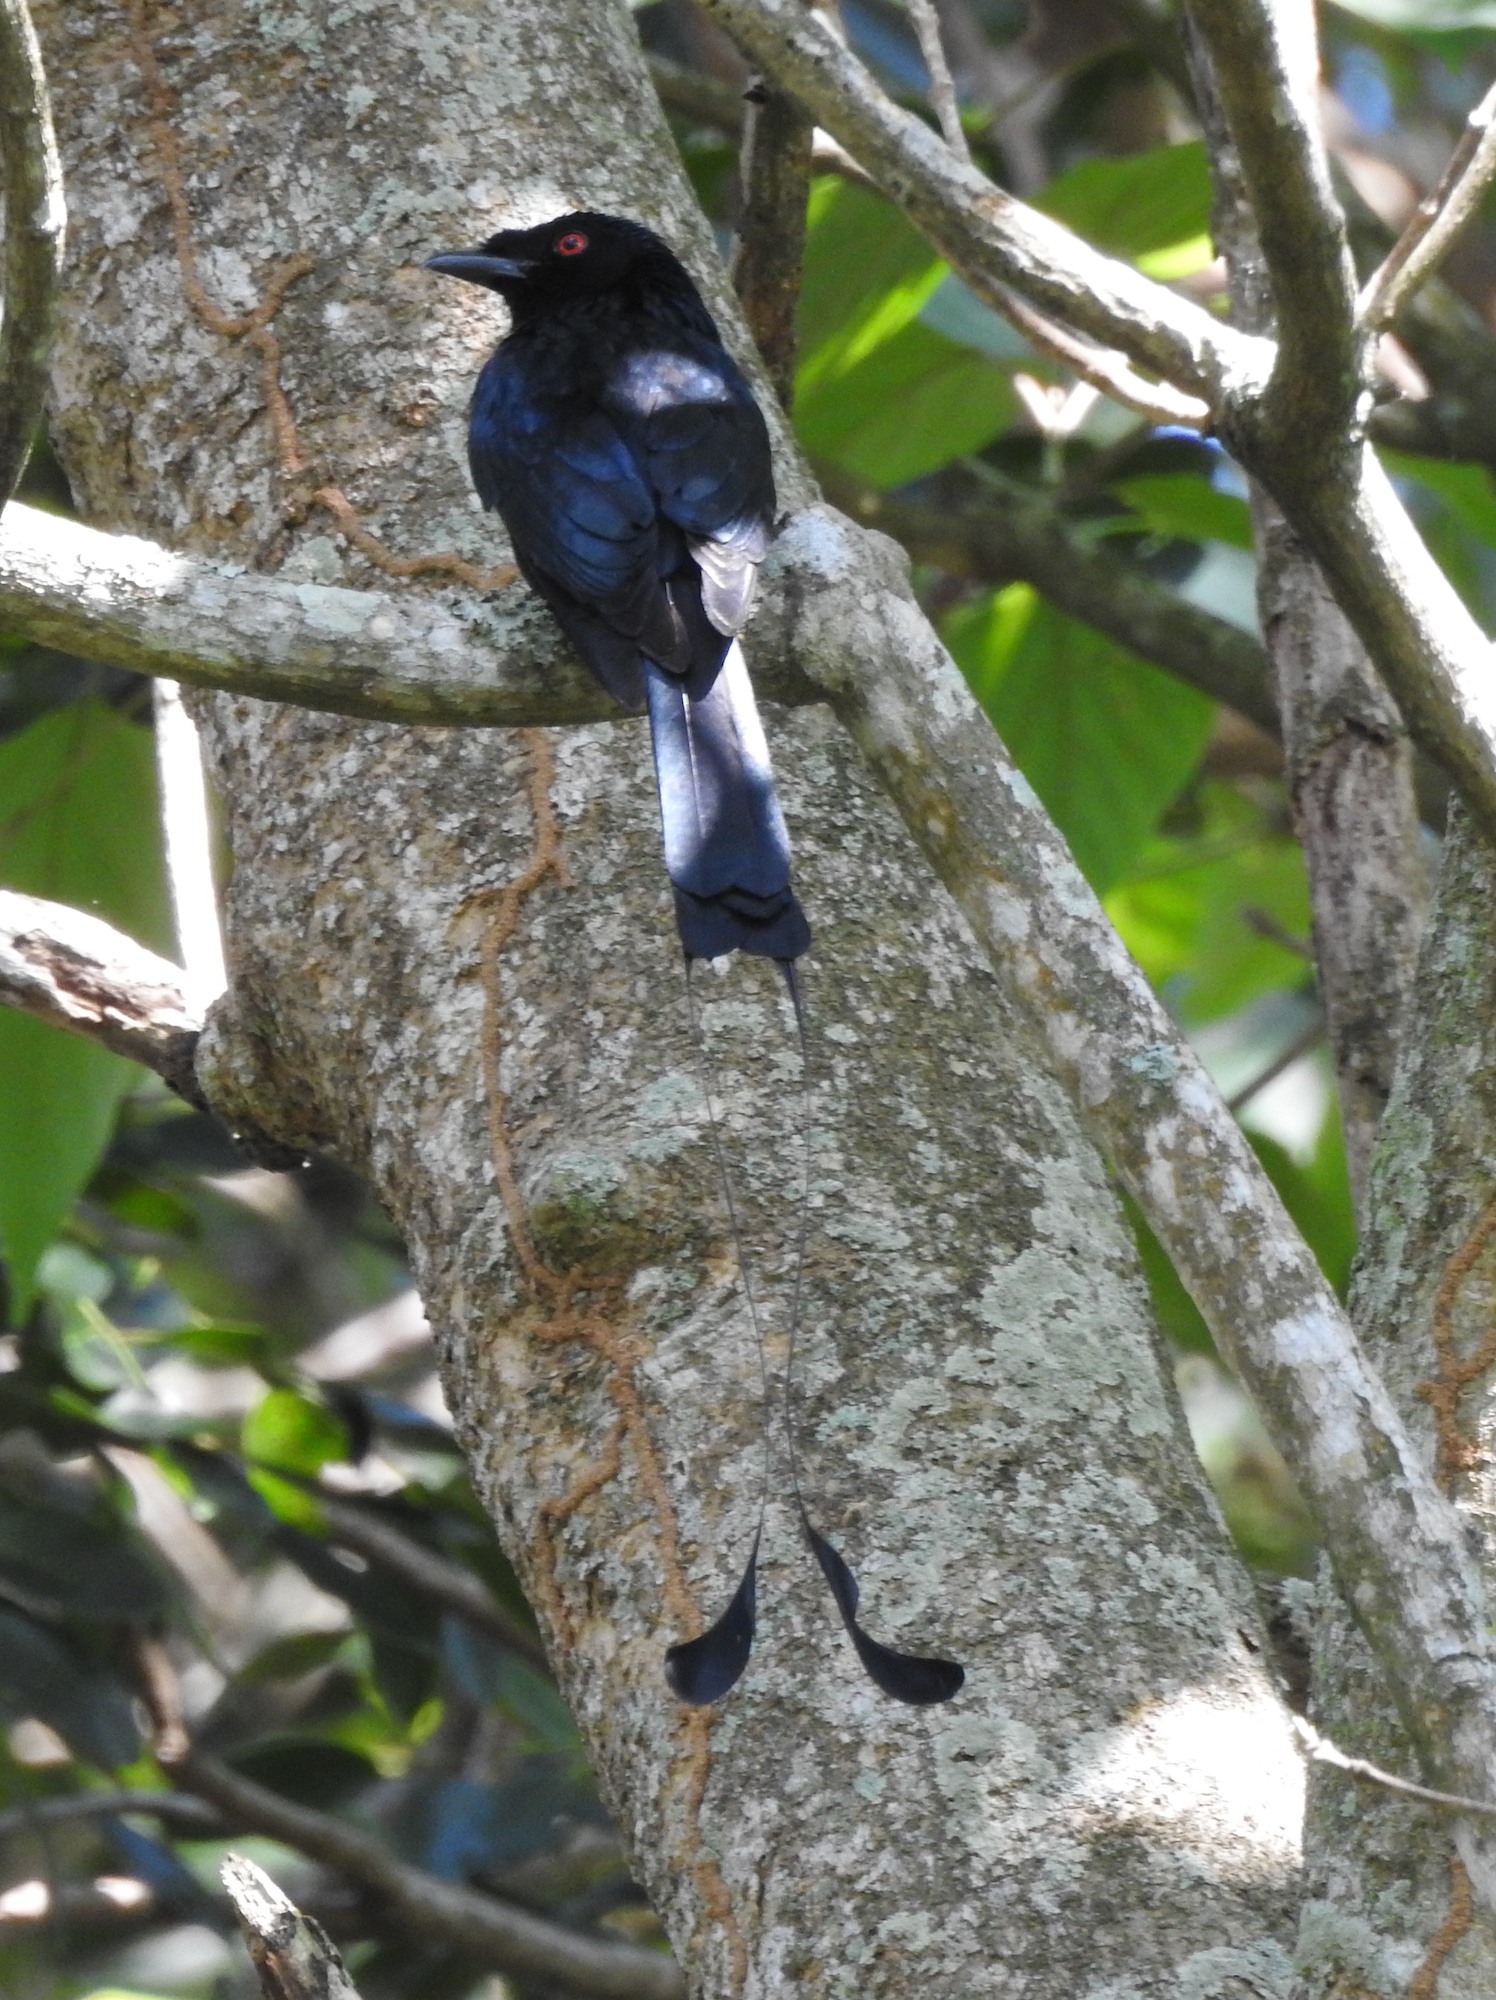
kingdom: Animalia
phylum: Chordata
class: Aves
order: Passeriformes
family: Dicruridae
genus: Dicrurus
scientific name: Dicrurus paradiseus
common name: Greater racket-tailed drongo
